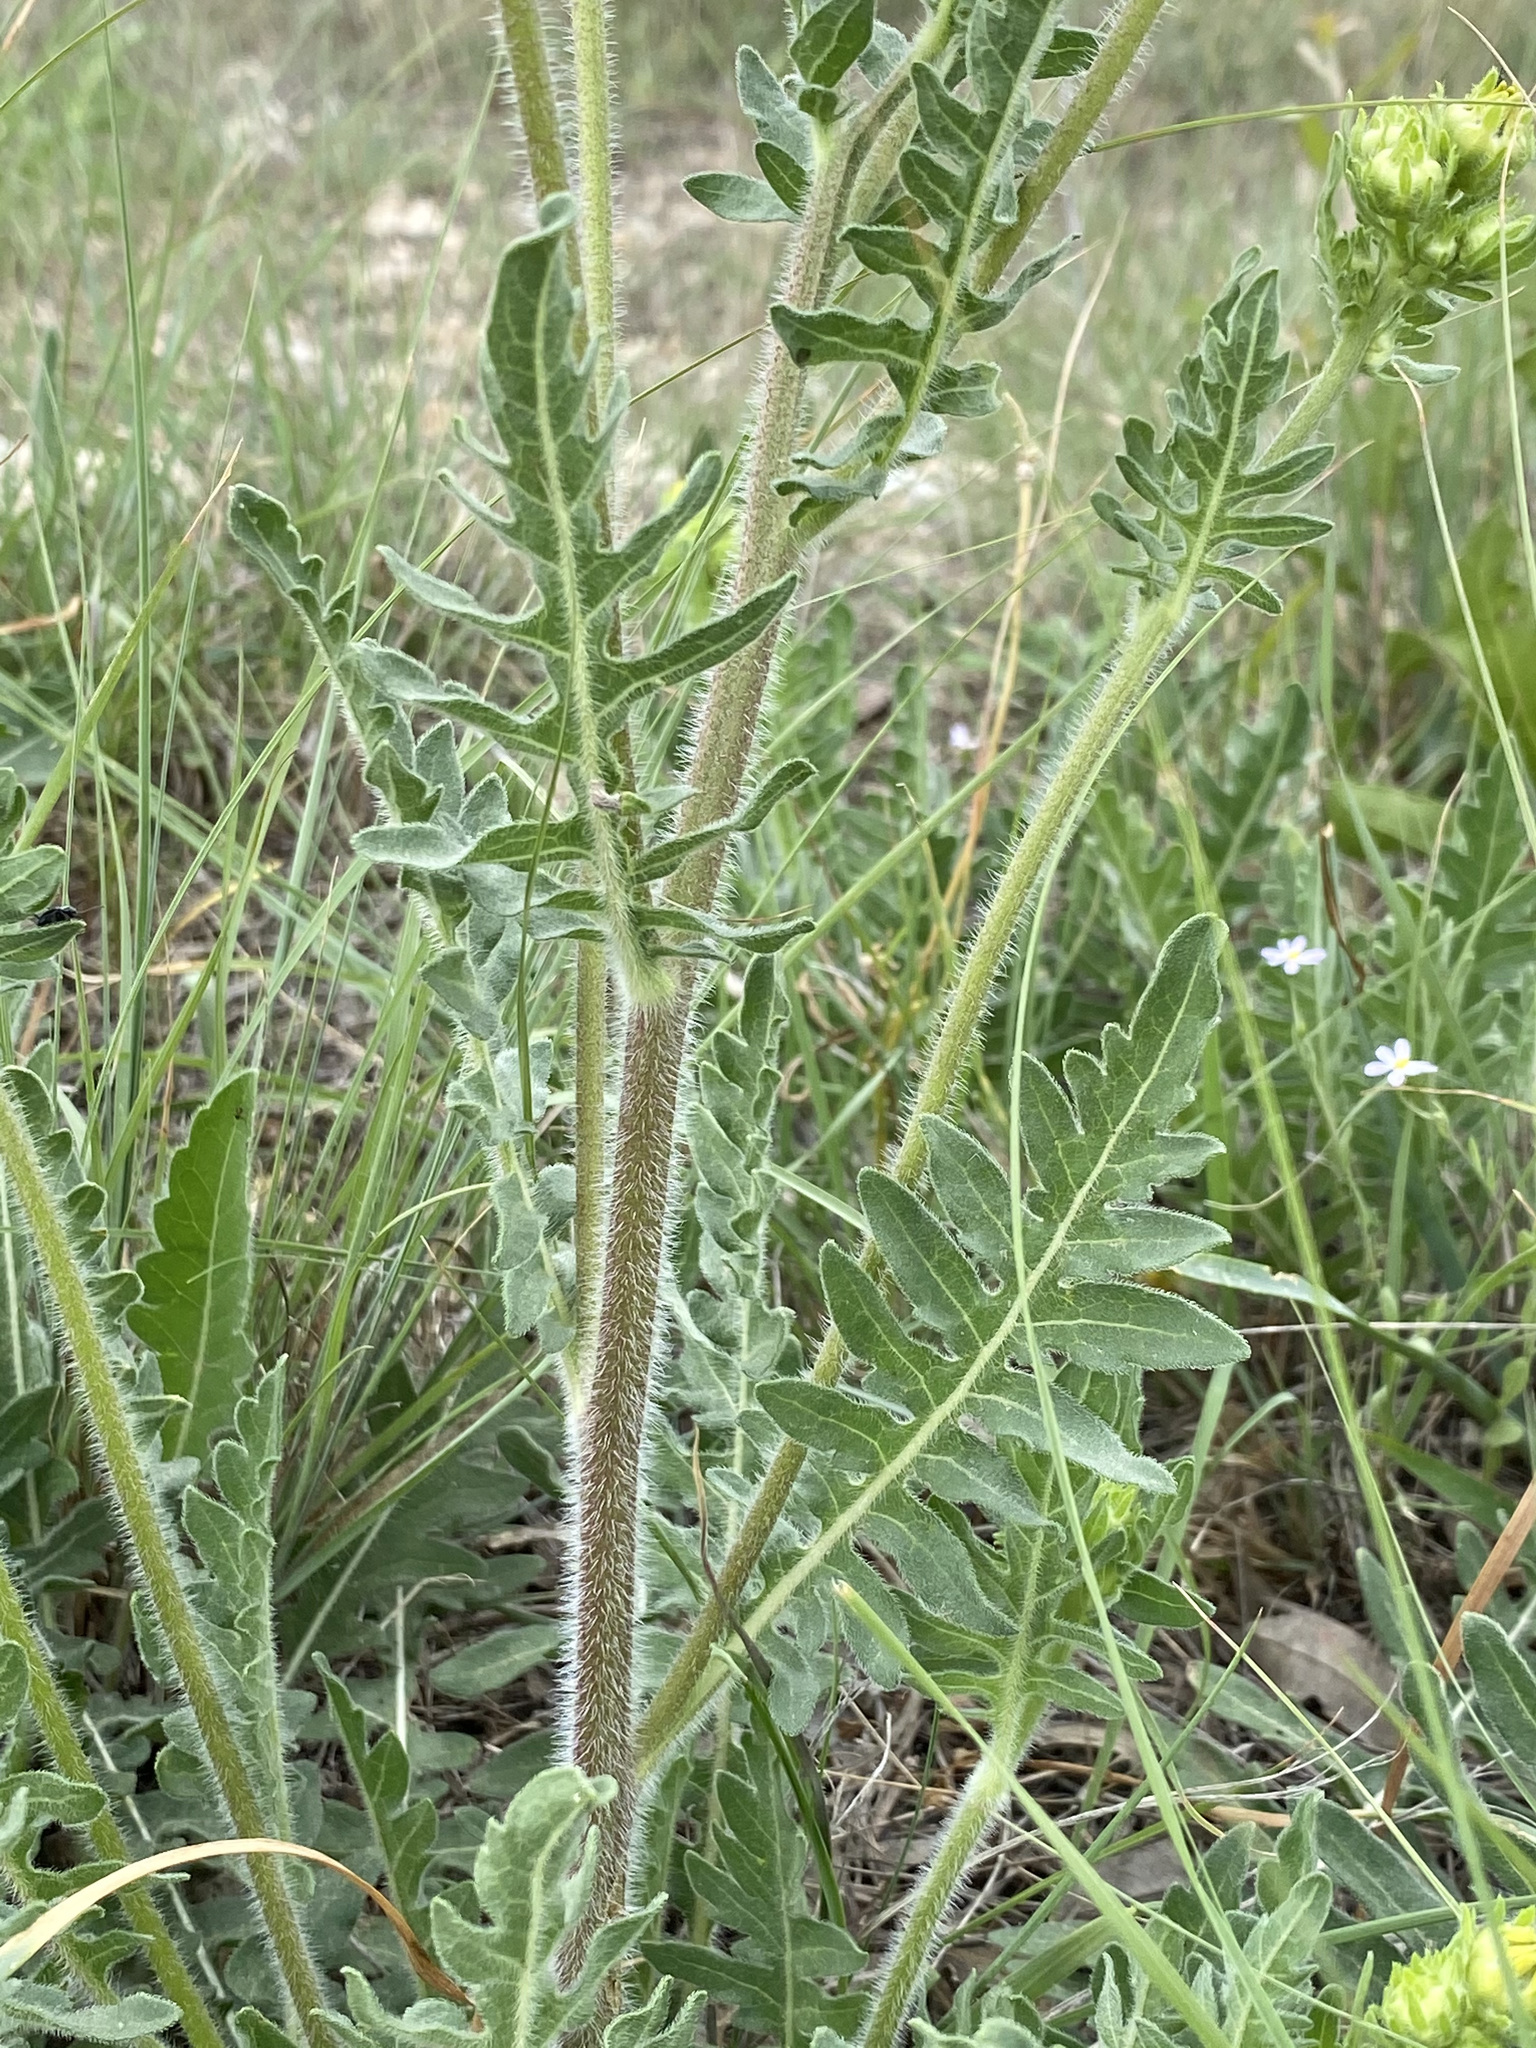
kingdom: Plantae
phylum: Tracheophyta
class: Magnoliopsida
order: Asterales
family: Asteraceae
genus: Engelmannia
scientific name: Engelmannia peristenia
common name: Engelmann's daisy
